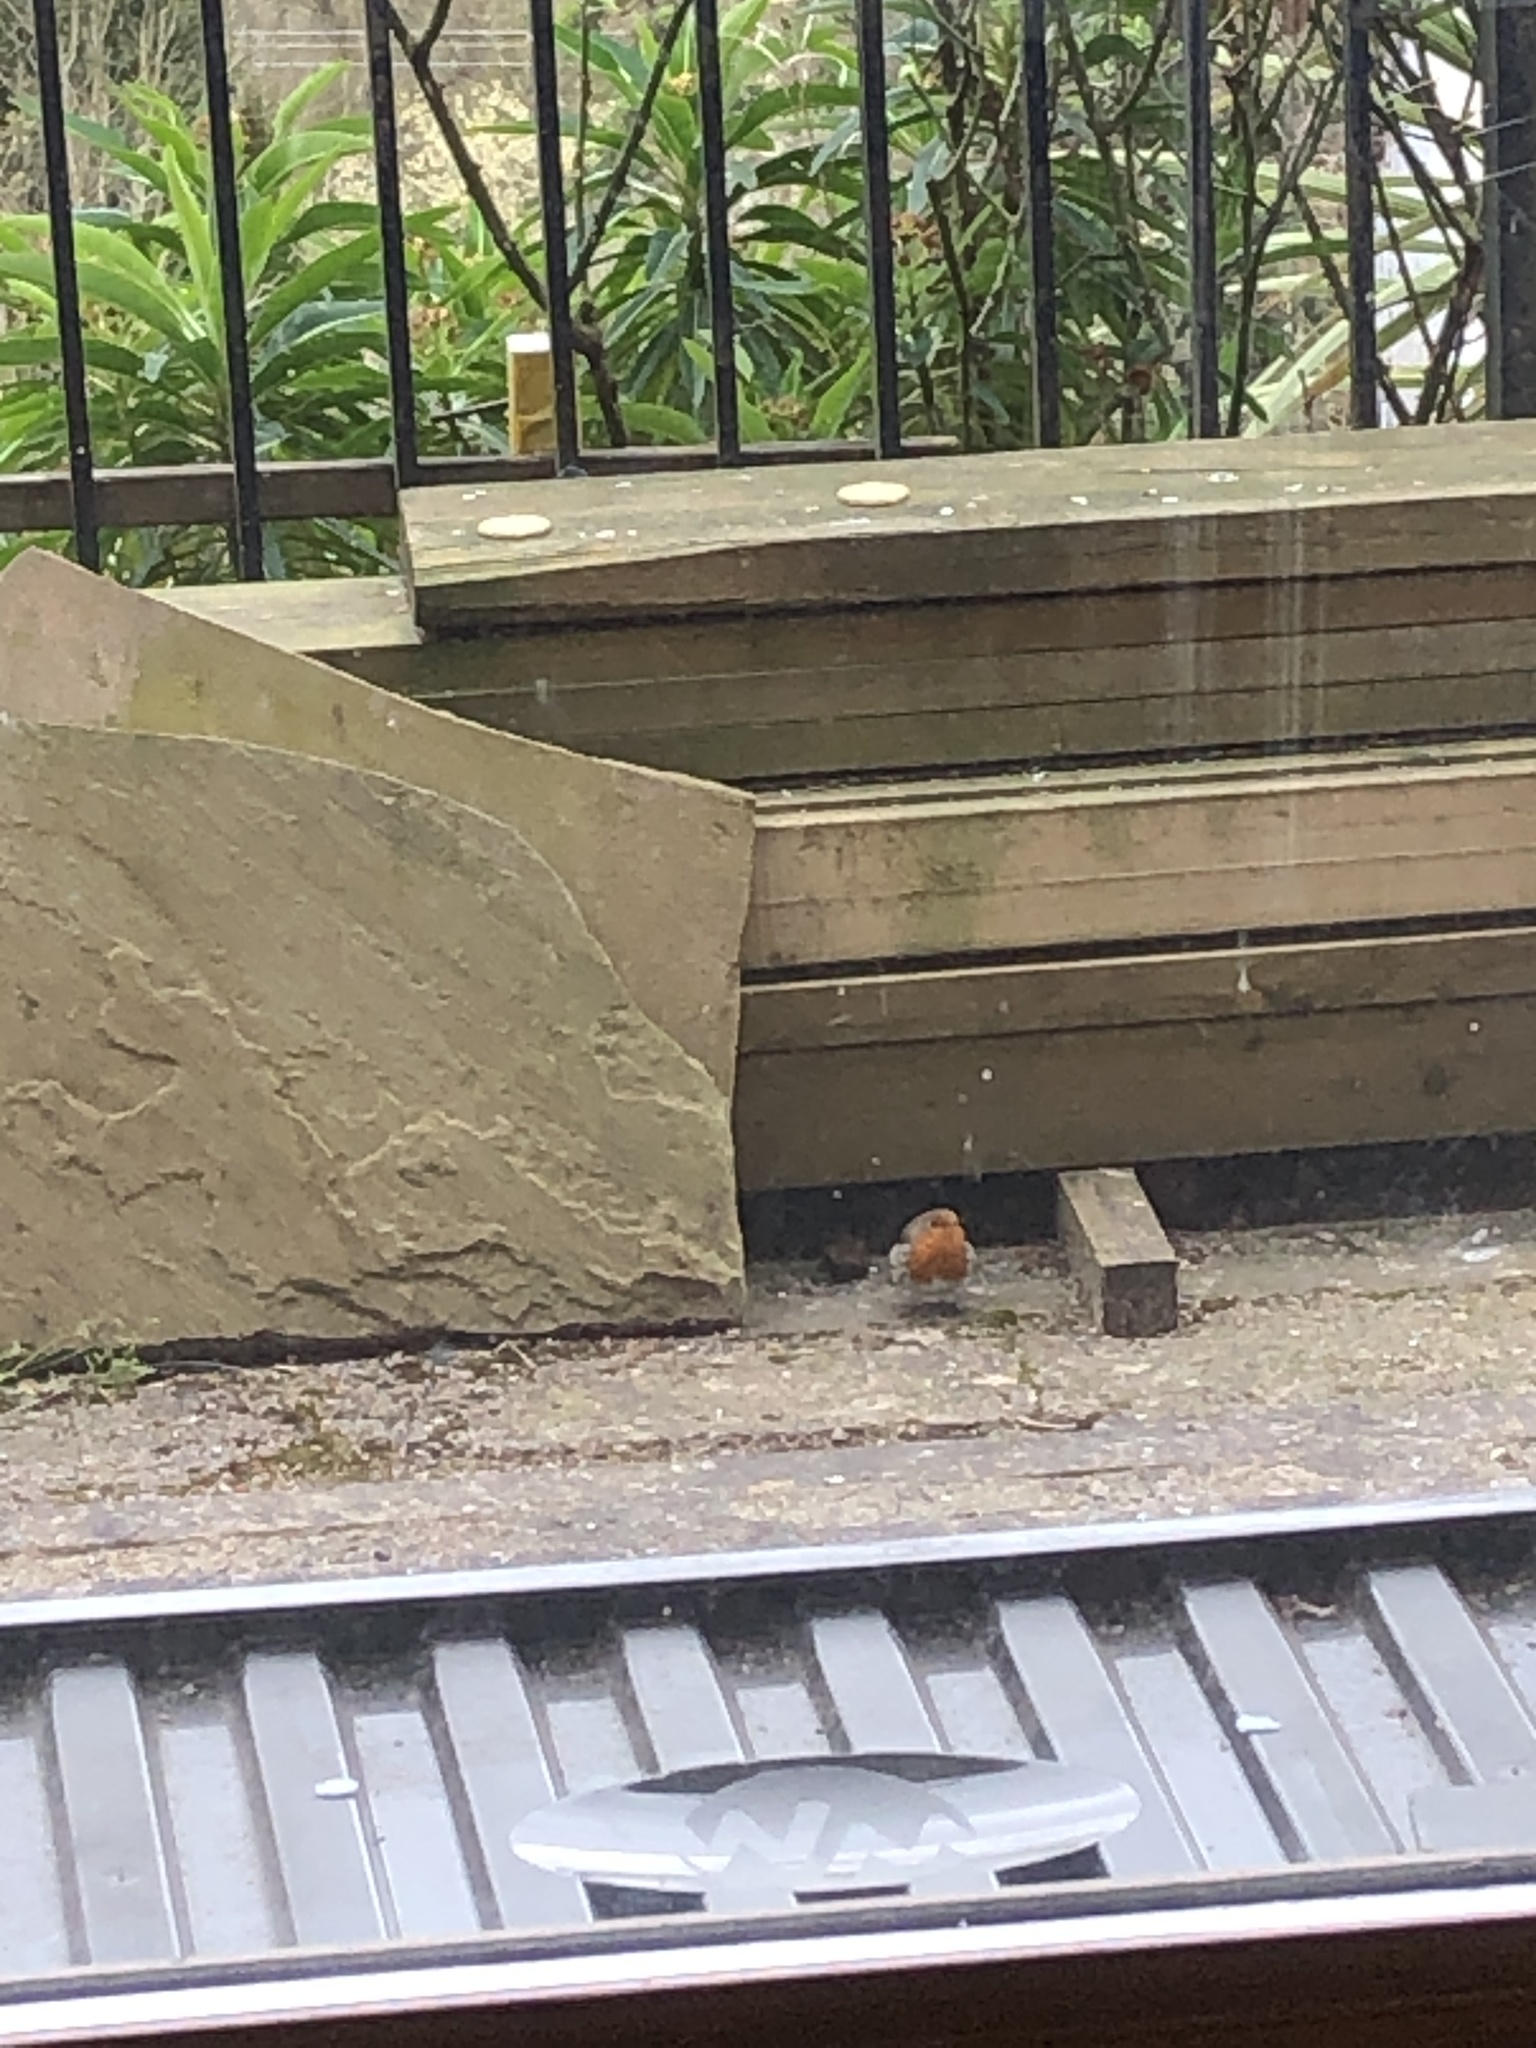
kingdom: Animalia
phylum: Chordata
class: Aves
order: Passeriformes
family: Muscicapidae
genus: Erithacus
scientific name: Erithacus rubecula
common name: European robin
